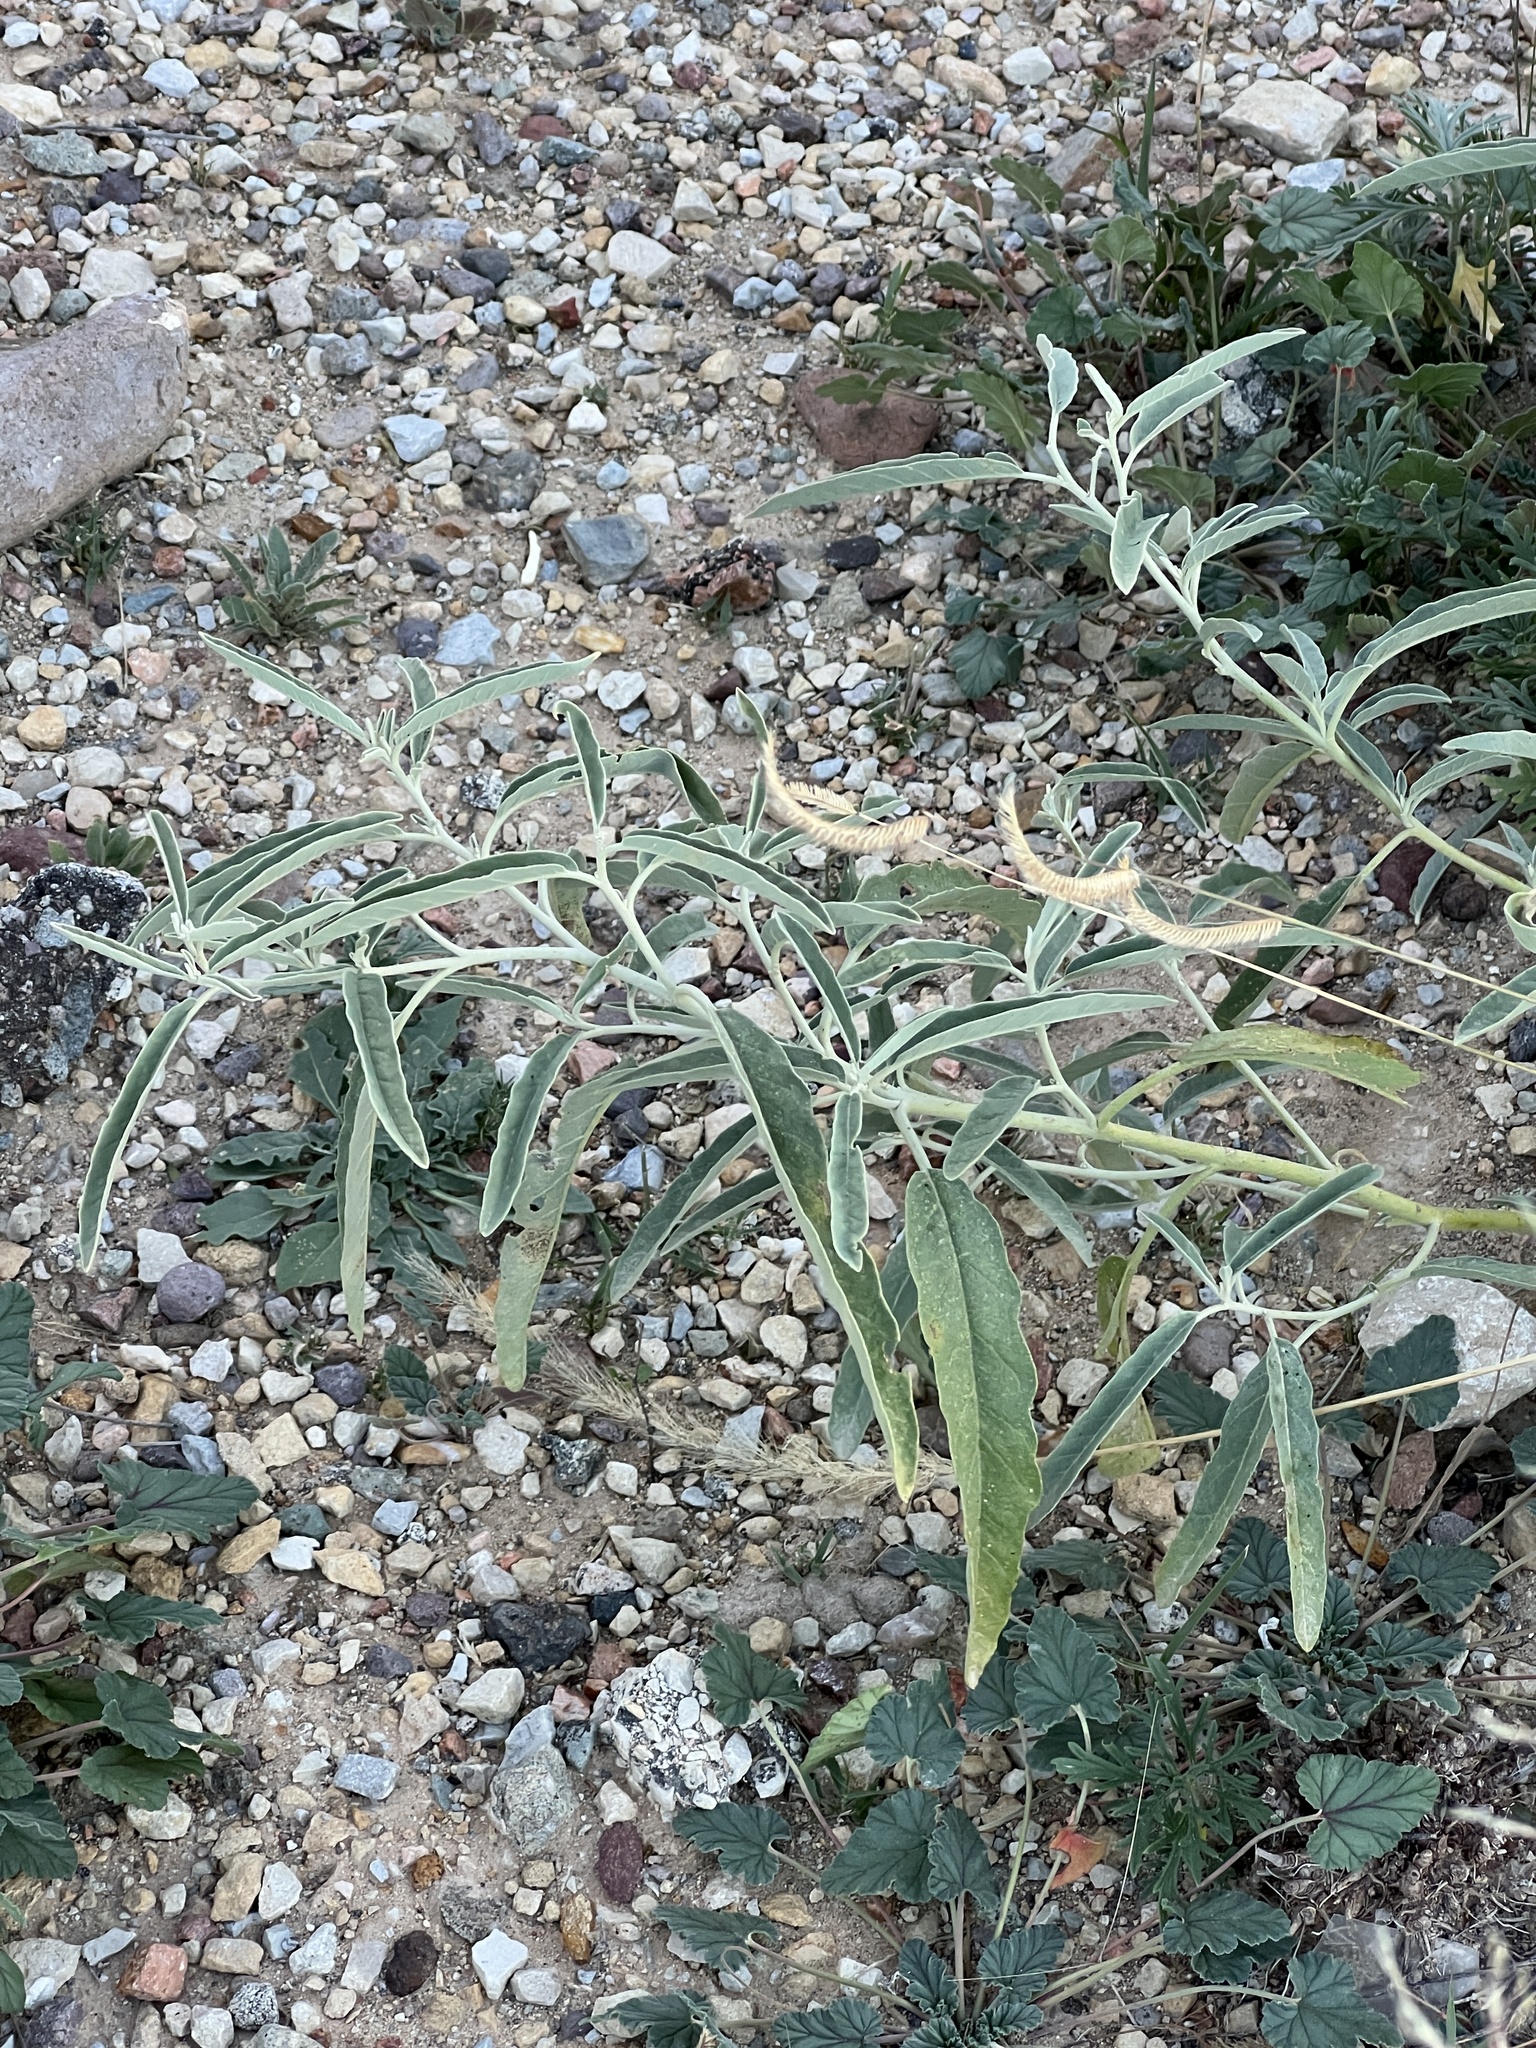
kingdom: Plantae
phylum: Tracheophyta
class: Magnoliopsida
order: Solanales
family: Solanaceae
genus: Solanum
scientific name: Solanum elaeagnifolium
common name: Silverleaf nightshade
